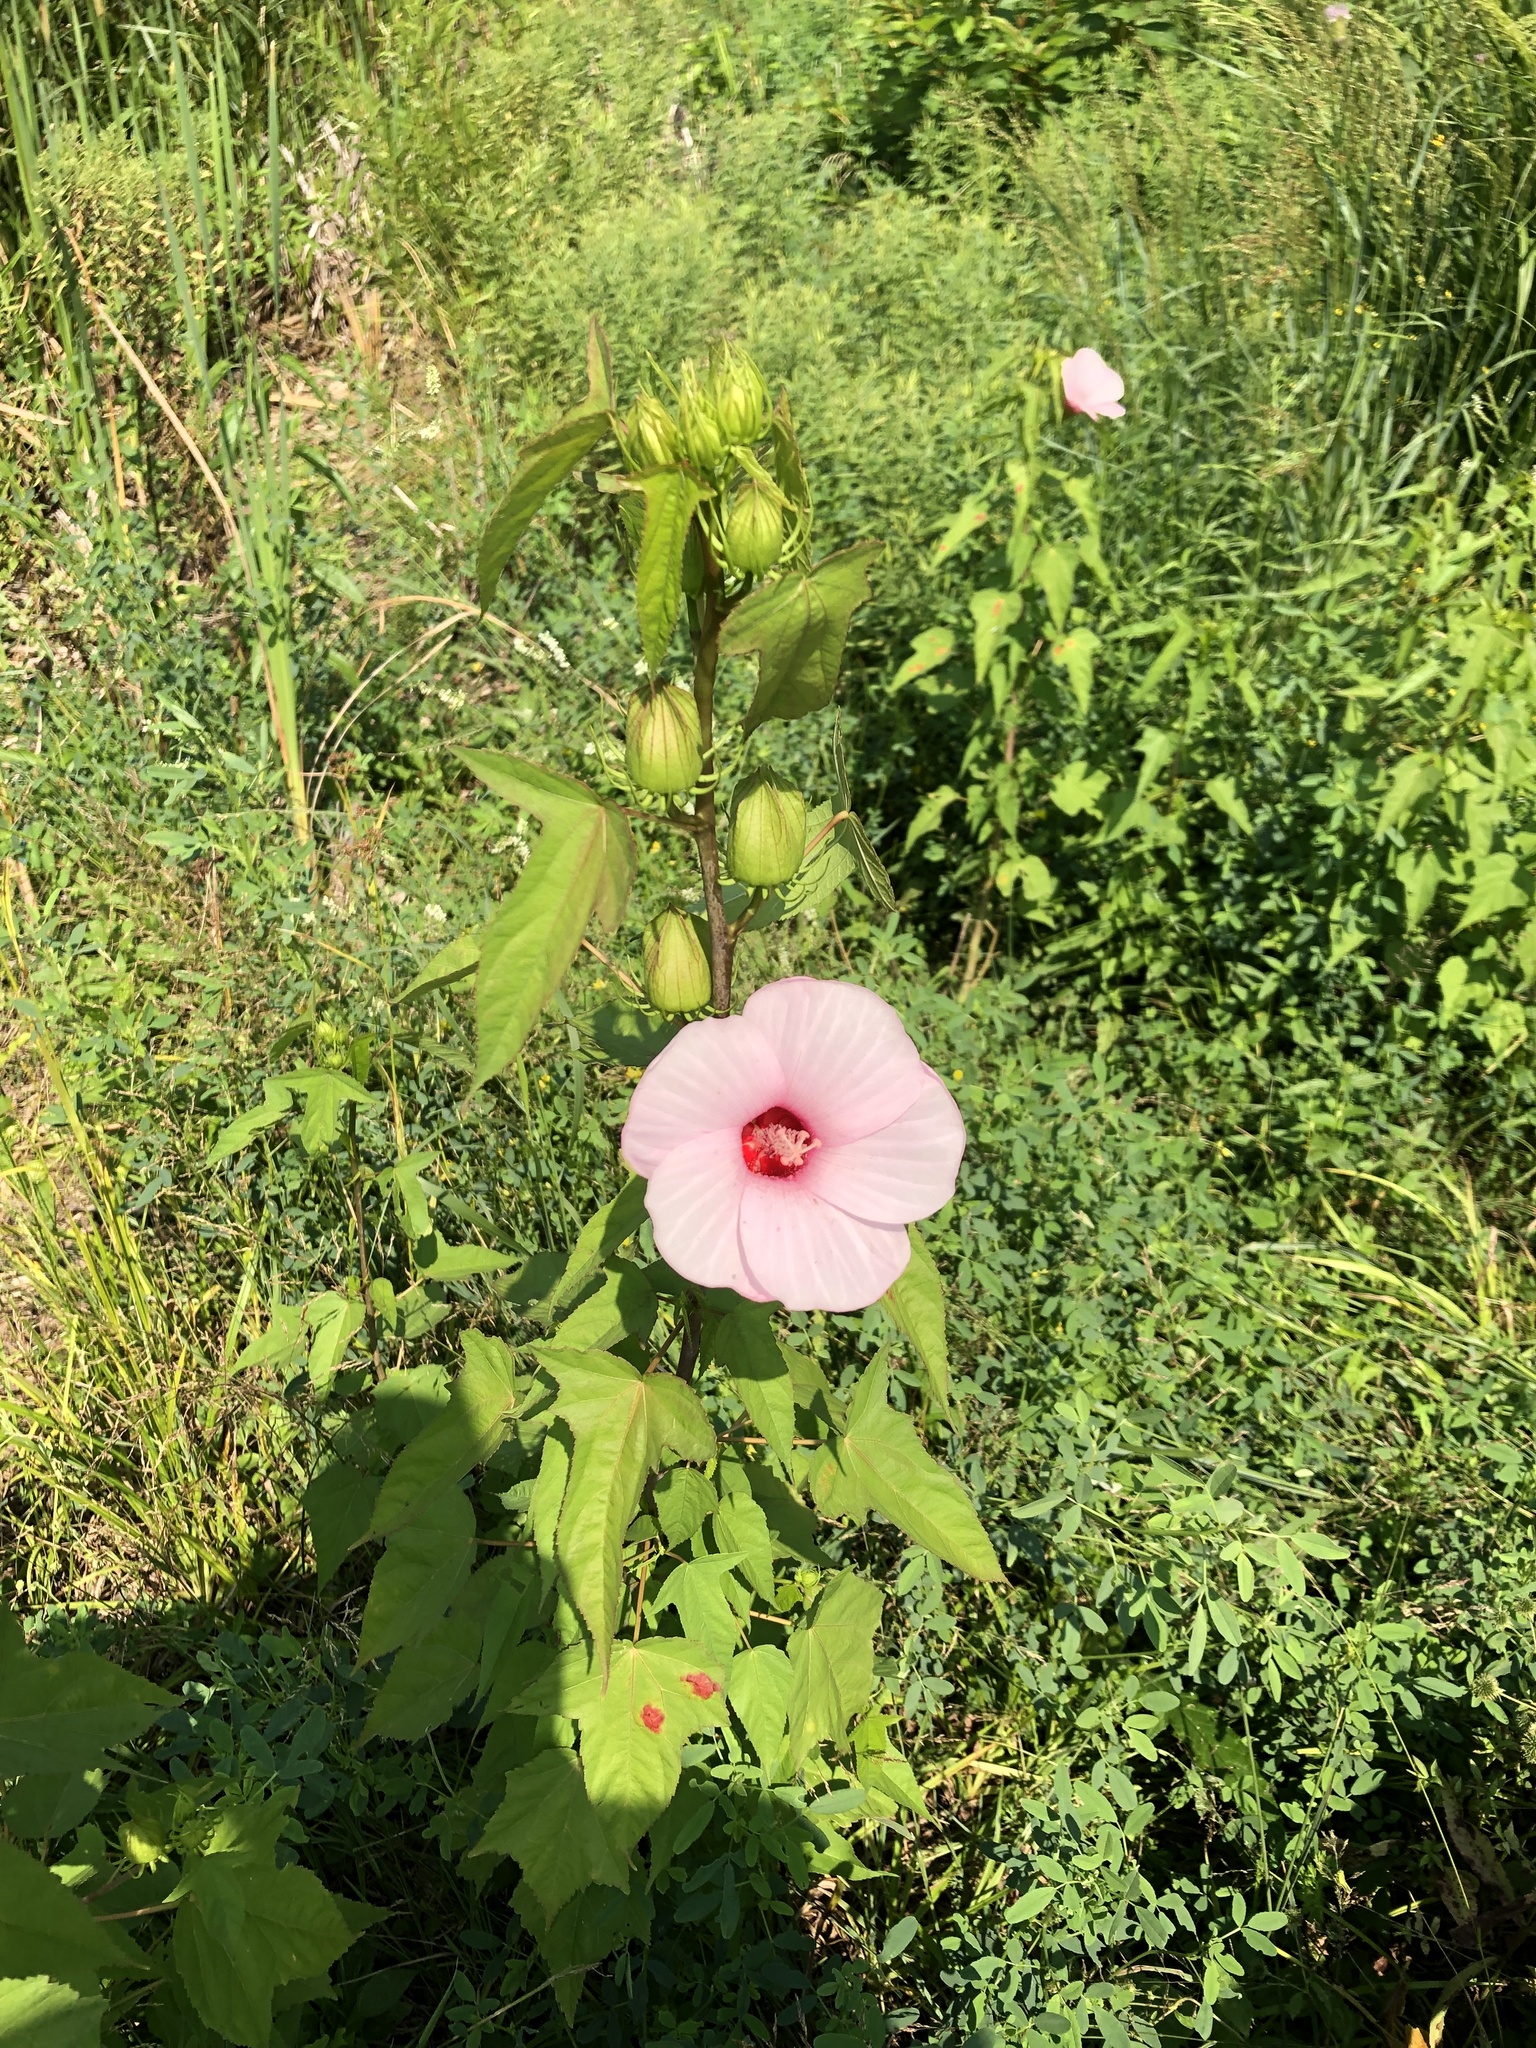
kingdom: Plantae
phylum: Tracheophyta
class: Magnoliopsida
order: Malvales
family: Malvaceae
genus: Hibiscus
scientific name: Hibiscus laevis
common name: Scarlet rose-mallow
